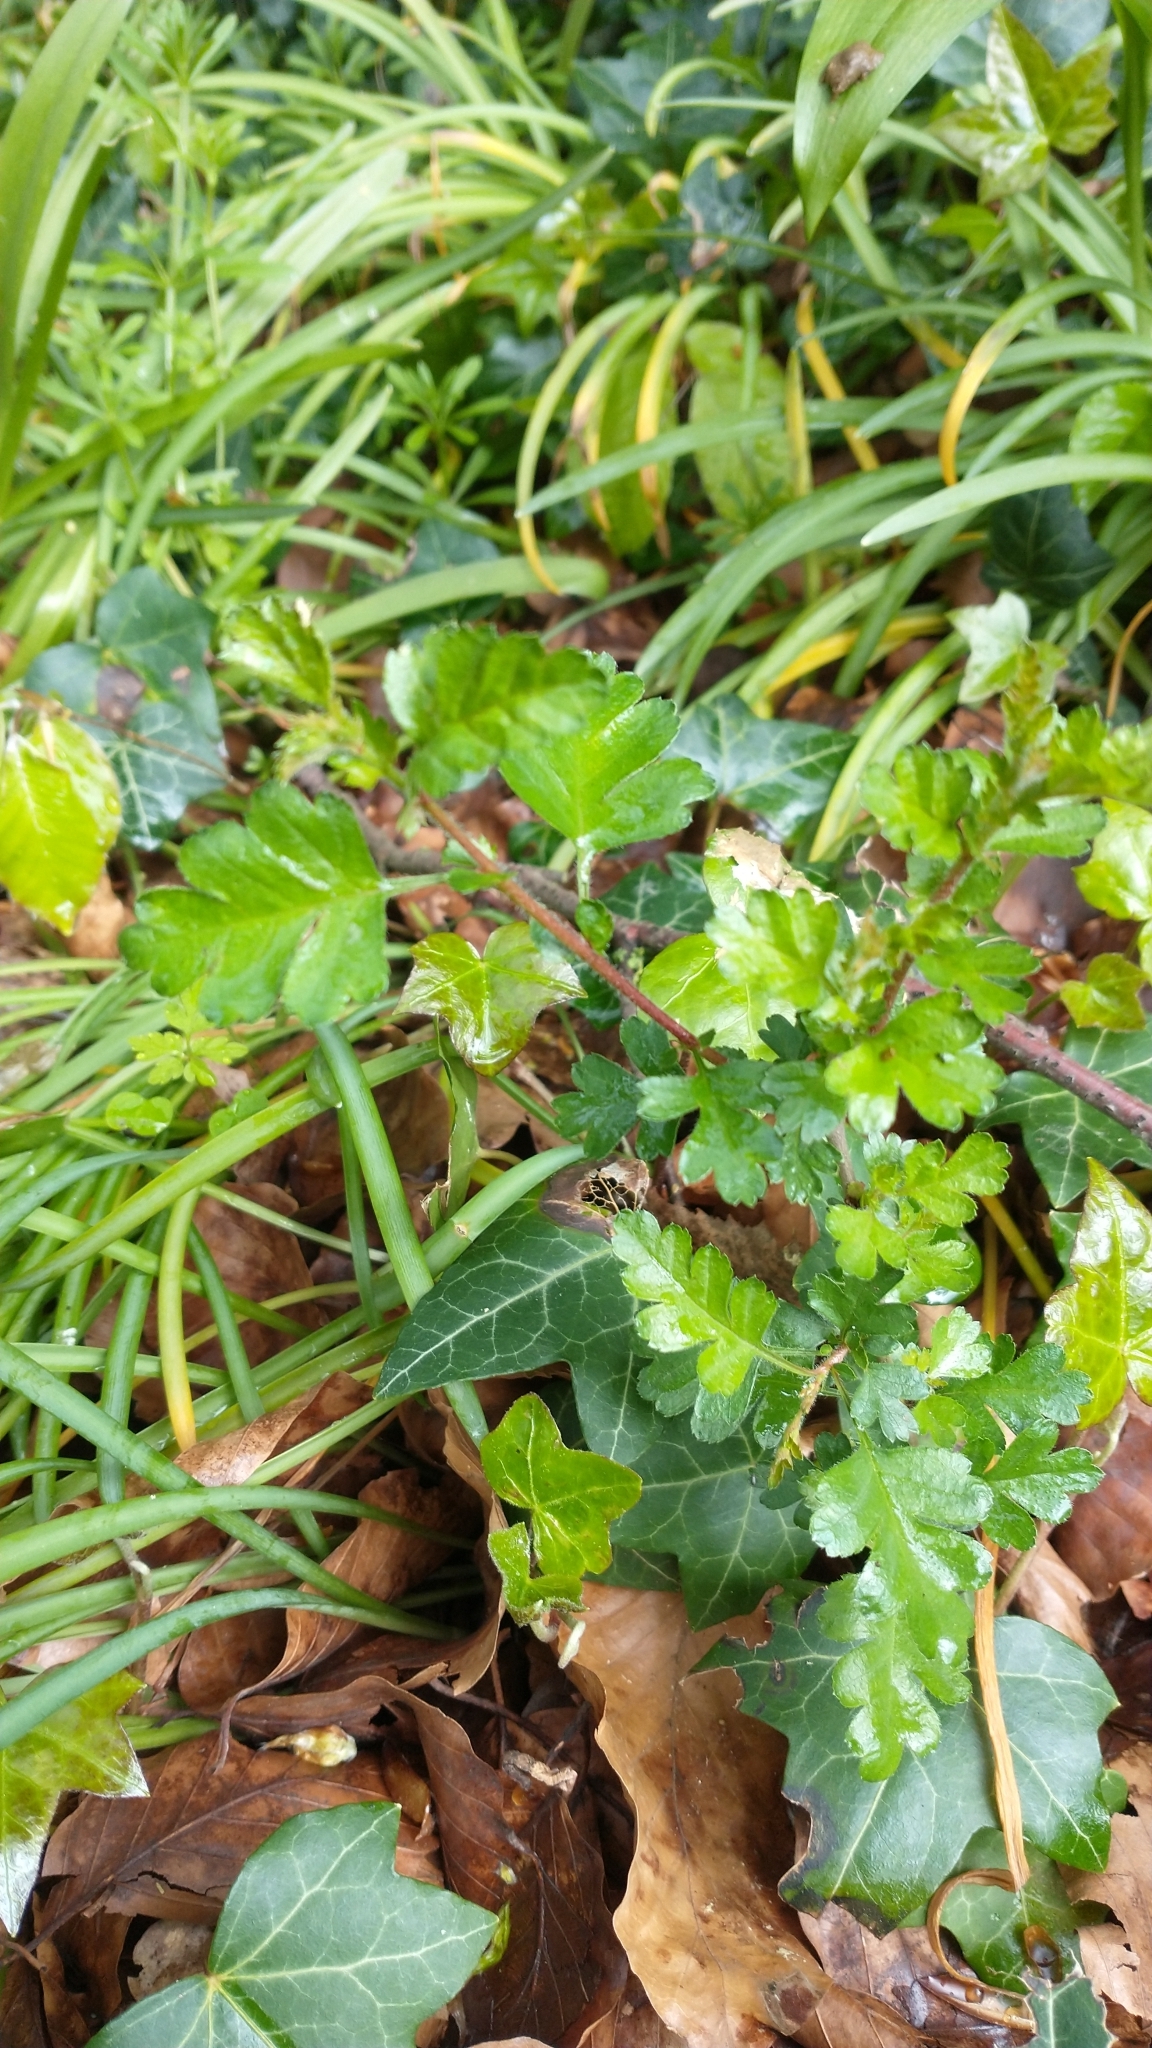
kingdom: Plantae
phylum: Tracheophyta
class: Magnoliopsida
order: Rosales
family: Rosaceae
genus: Crataegus
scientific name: Crataegus monogyna
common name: Hawthorn
